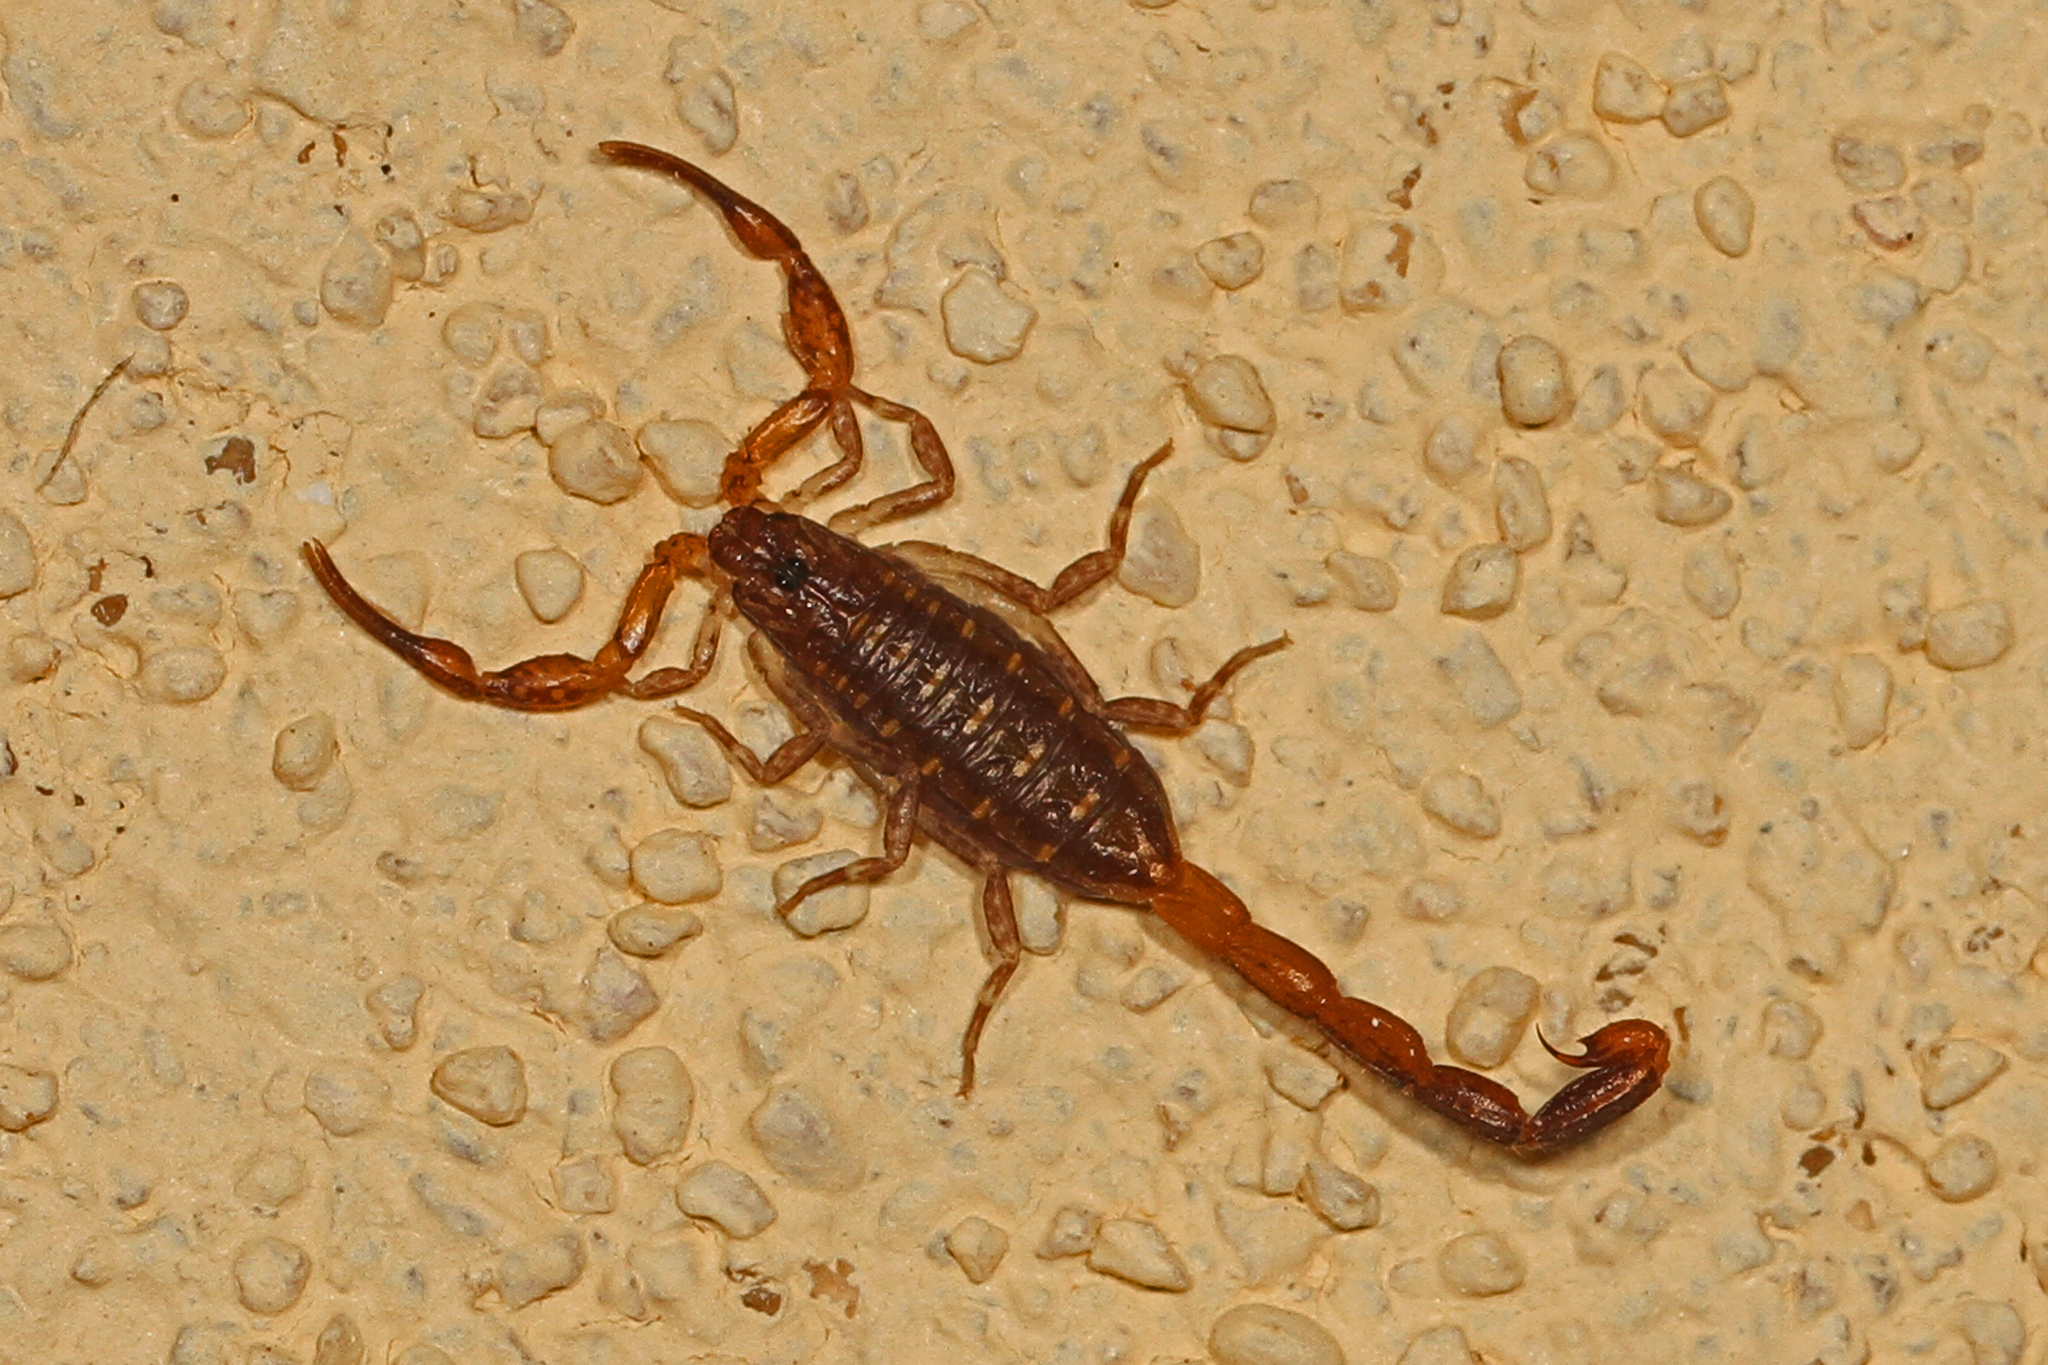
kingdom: Animalia
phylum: Arthropoda
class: Arachnida
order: Scorpiones
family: Buthidae
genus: Centruroides
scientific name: Centruroides hentzi
